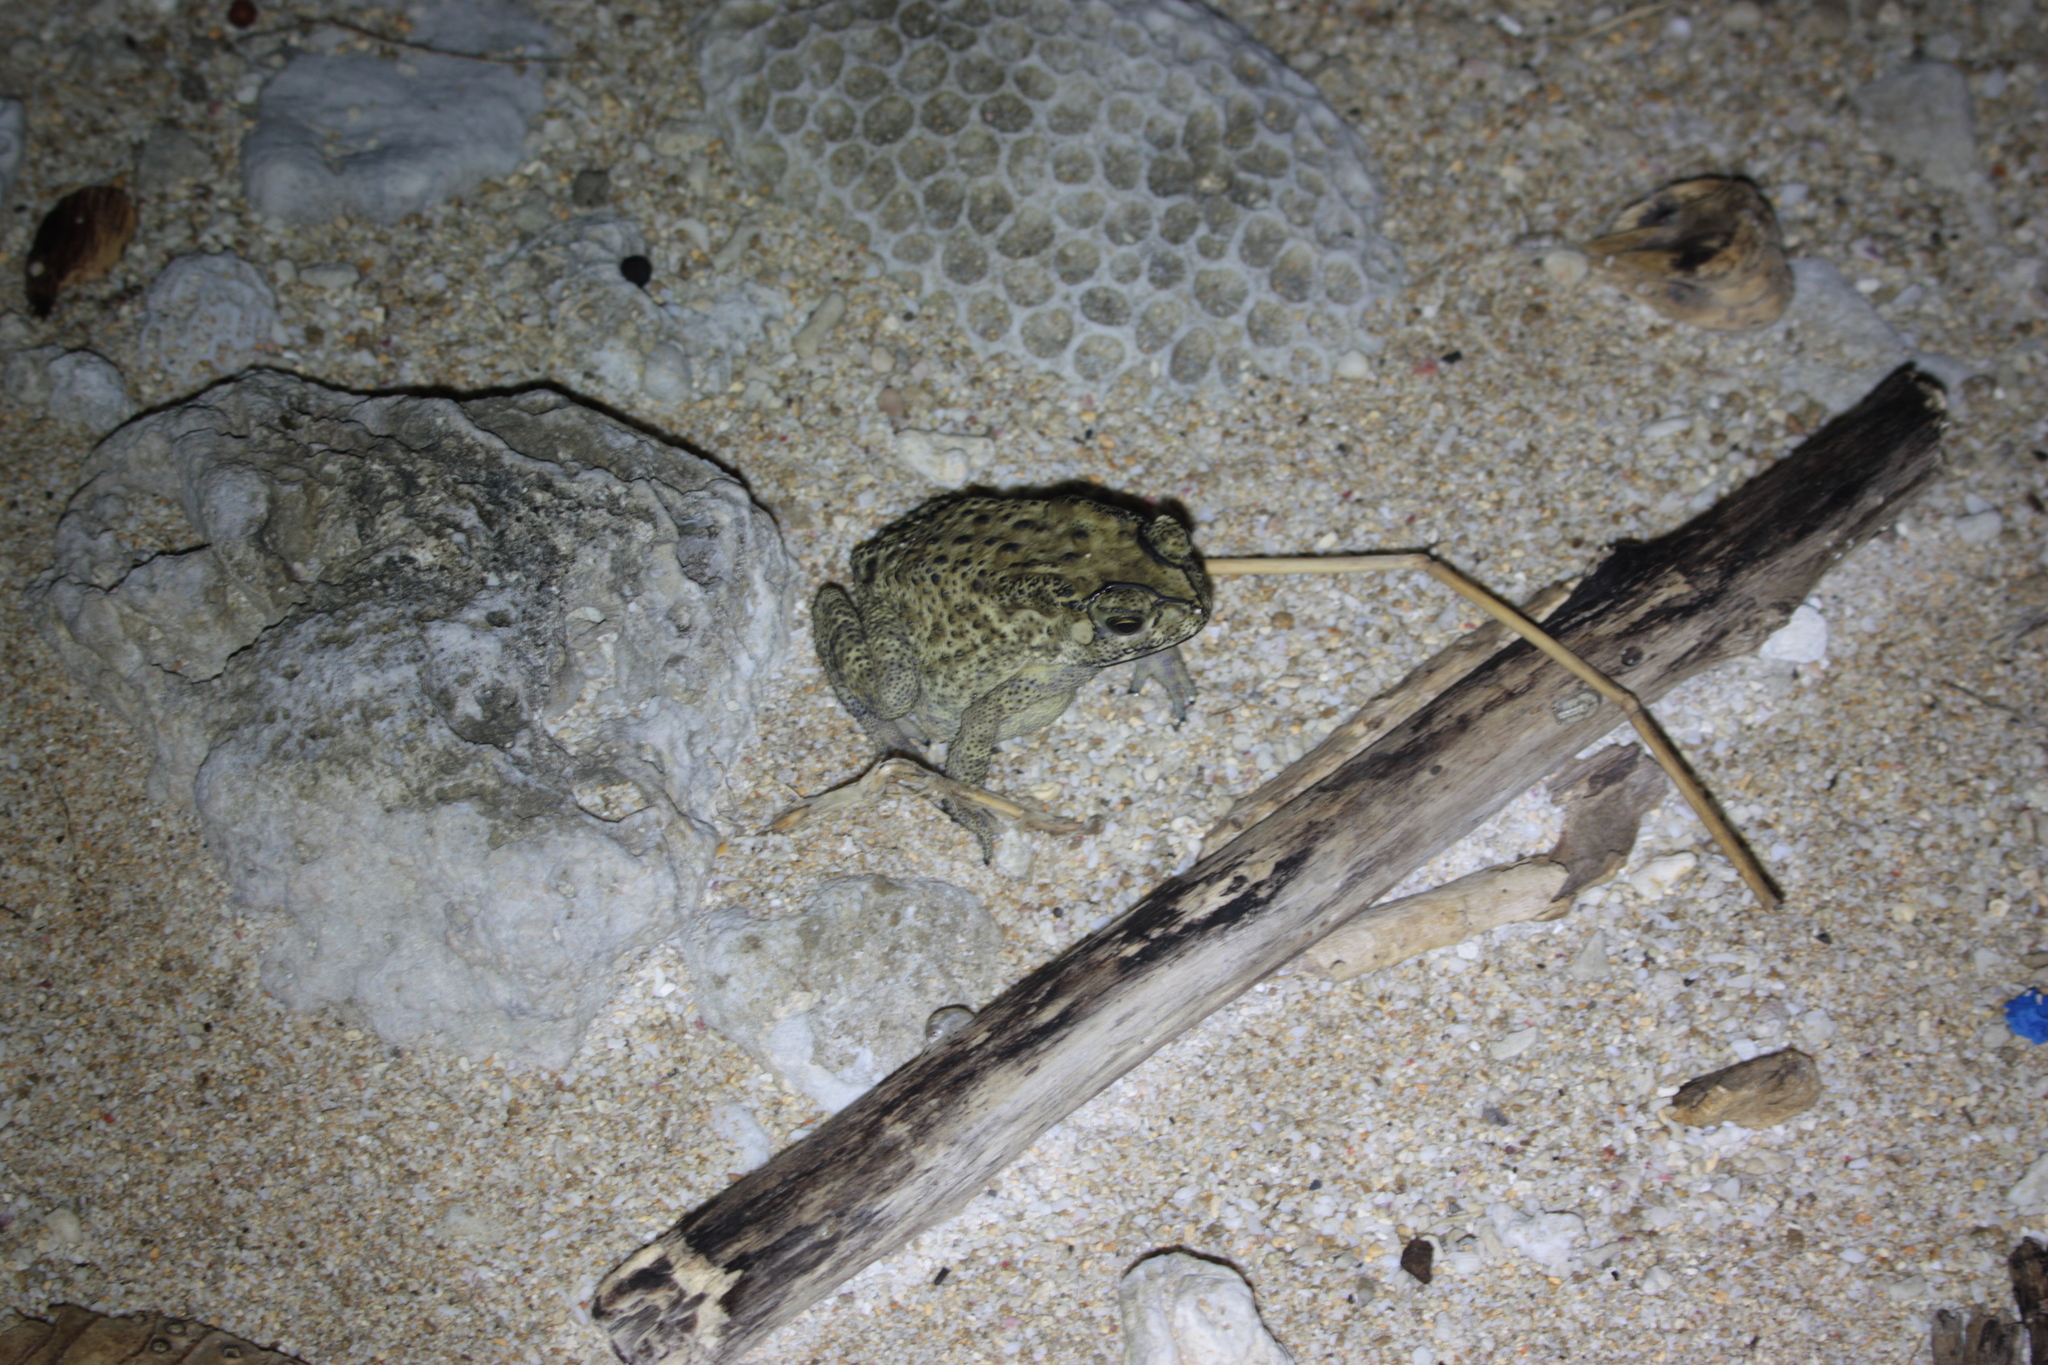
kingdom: Animalia
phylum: Chordata
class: Amphibia
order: Anura
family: Bufonidae
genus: Duttaphrynus
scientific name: Duttaphrynus melanostictus
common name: Common sunda toad
